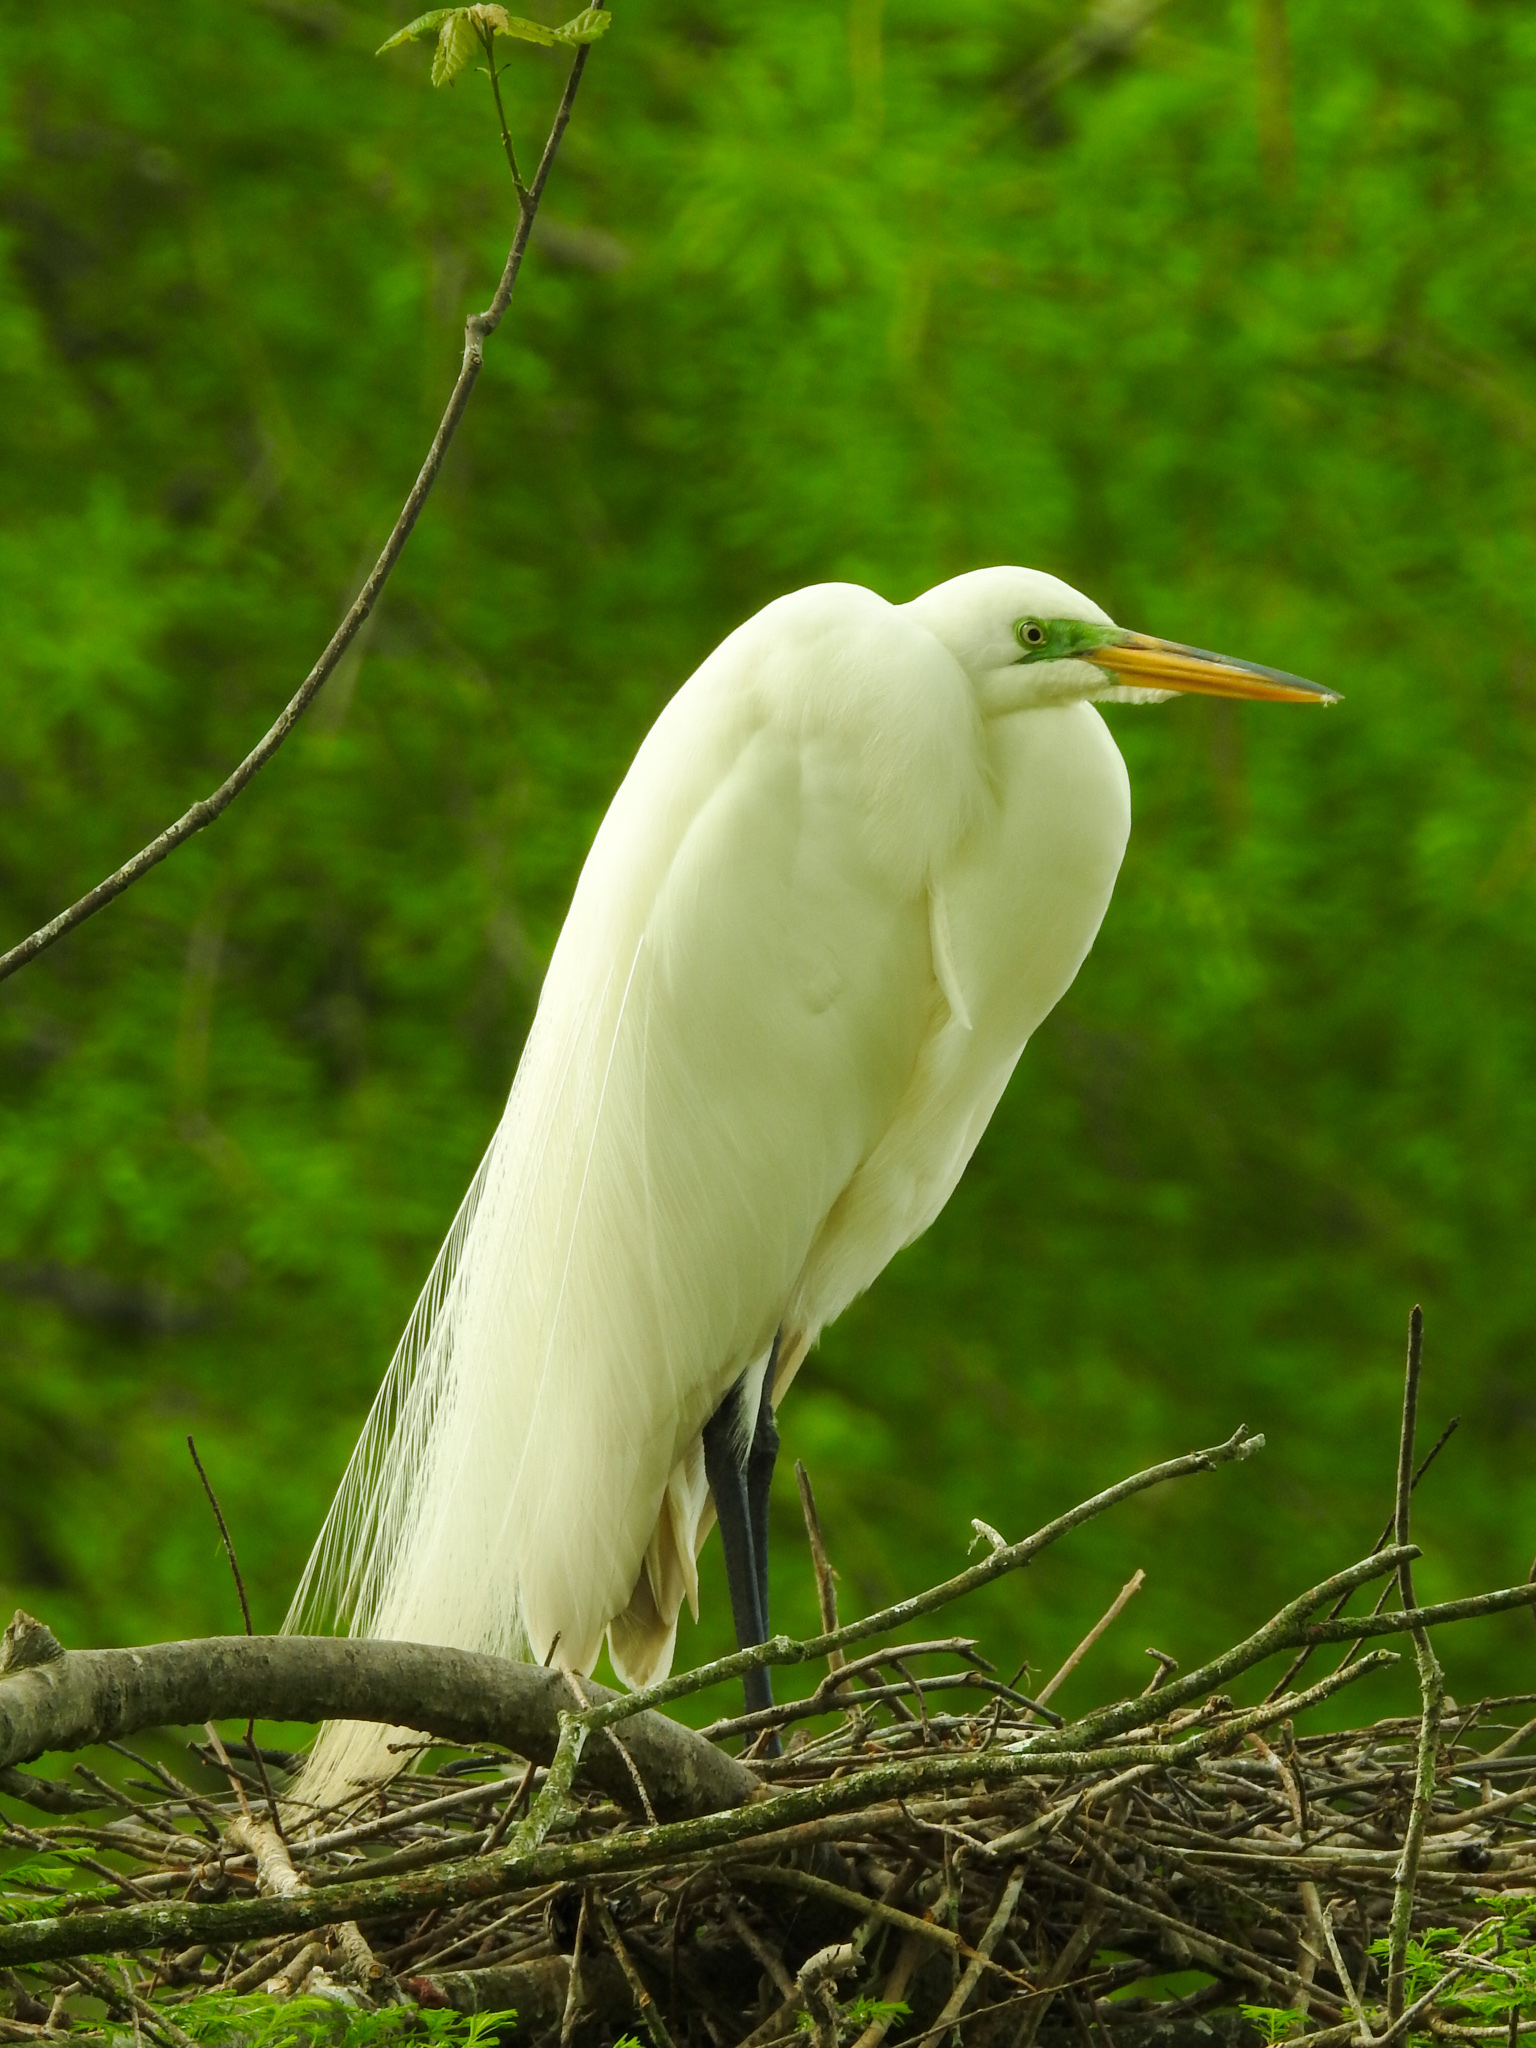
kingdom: Animalia
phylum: Chordata
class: Aves
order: Pelecaniformes
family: Ardeidae
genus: Ardea
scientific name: Ardea alba
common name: Great egret
